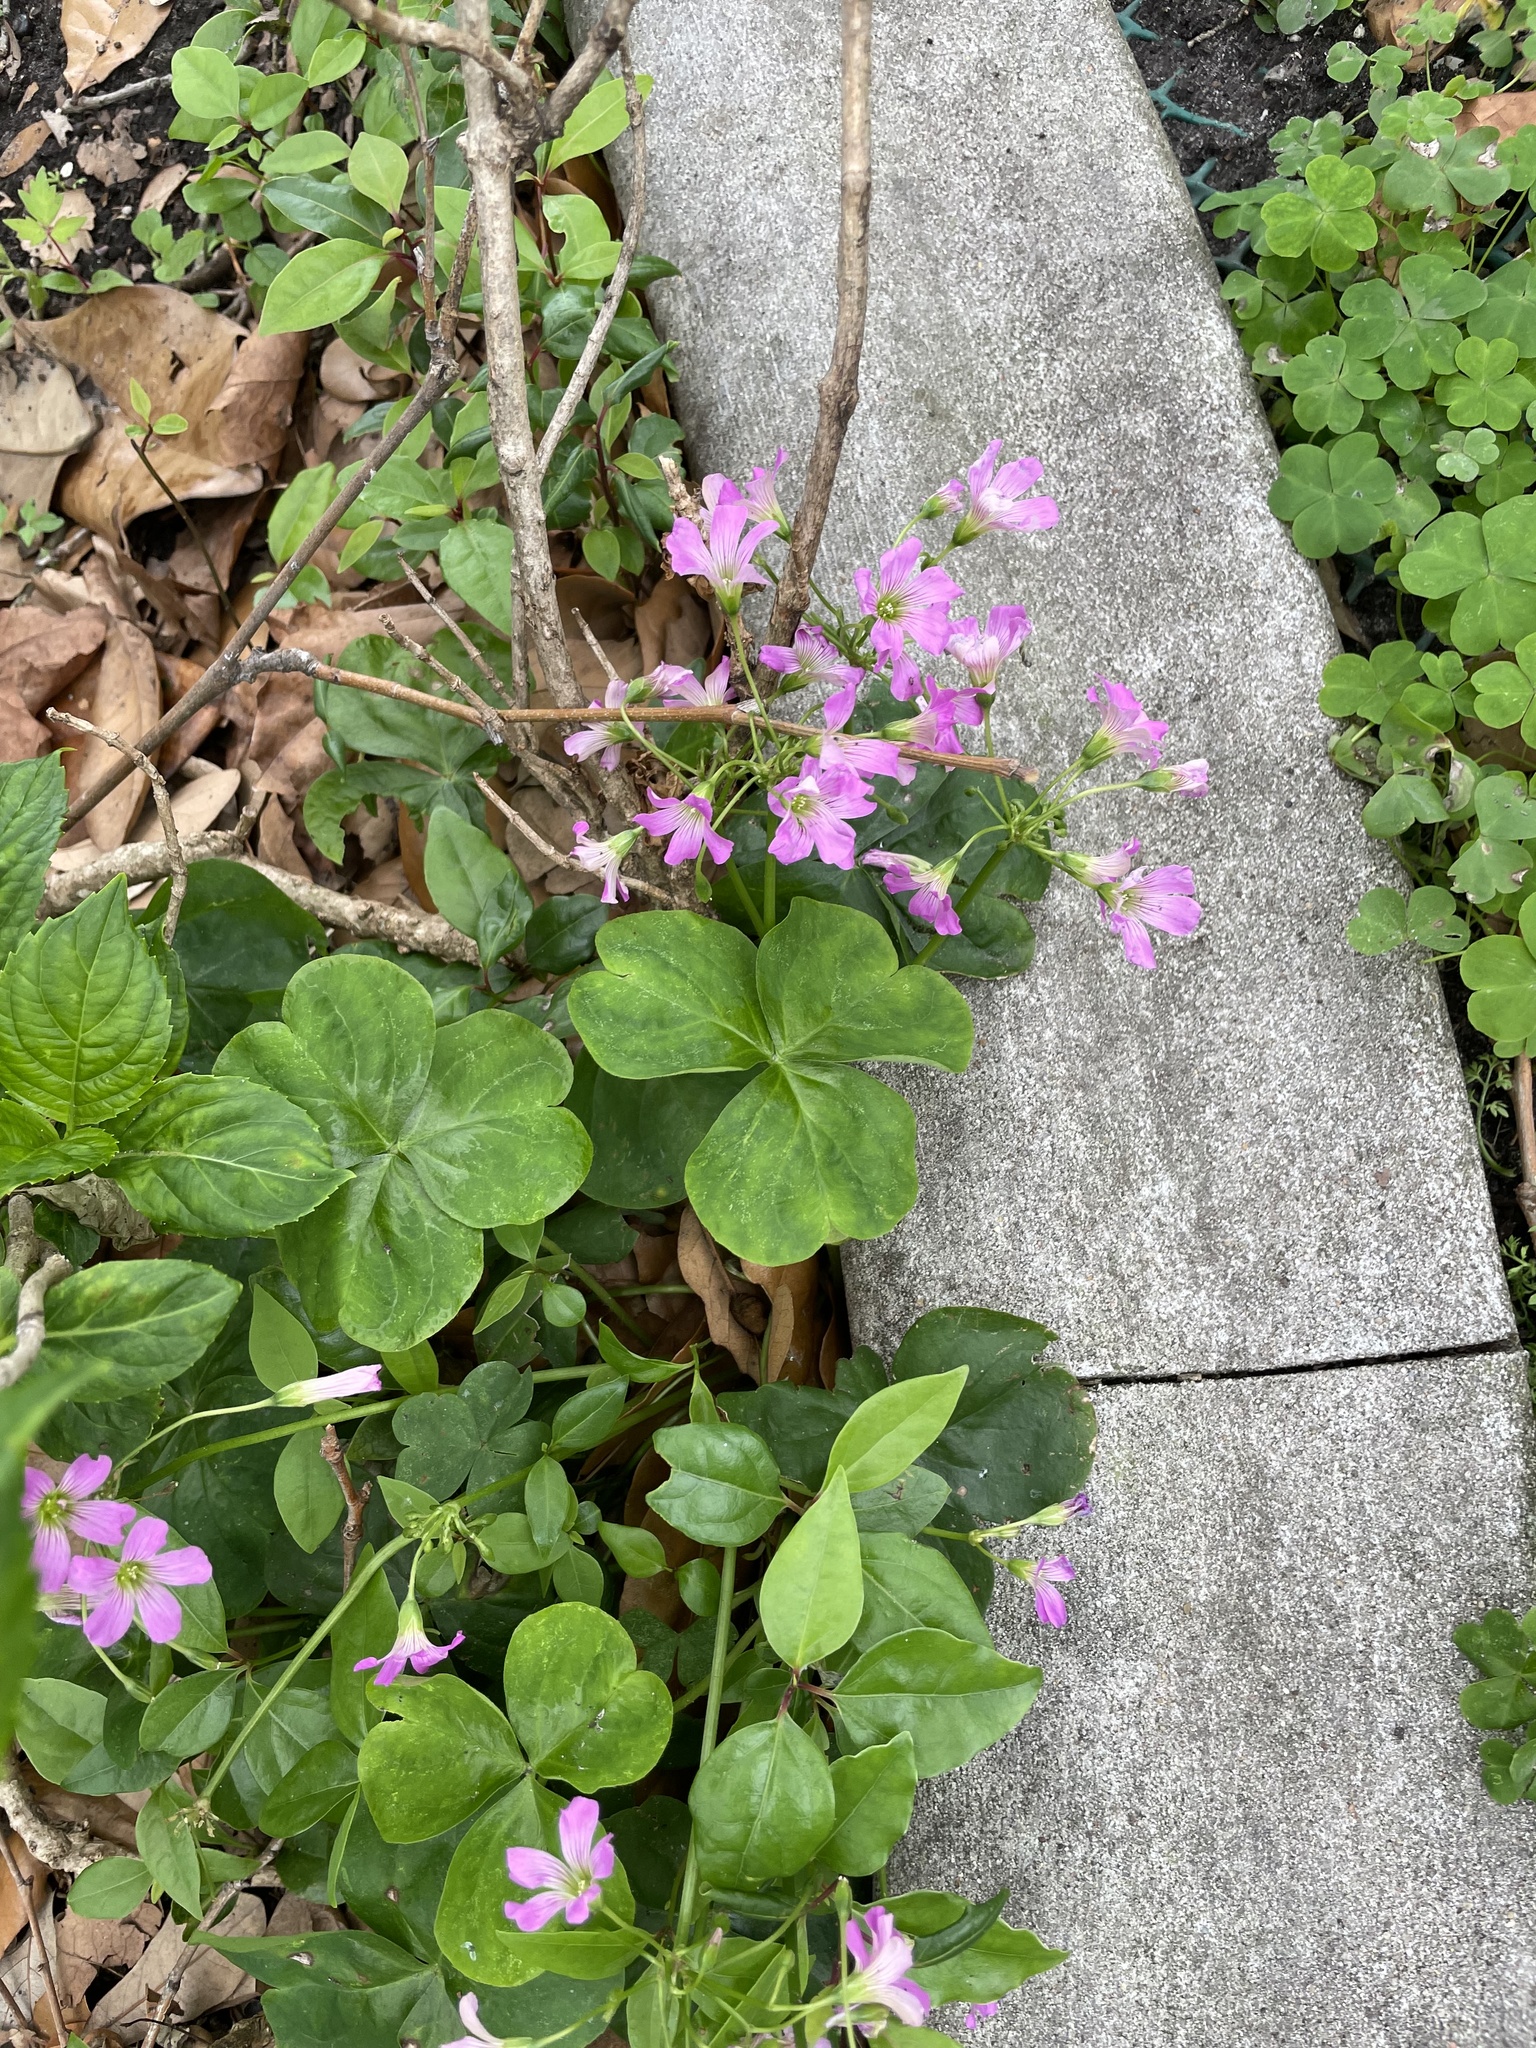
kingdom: Plantae
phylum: Tracheophyta
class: Magnoliopsida
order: Oxalidales
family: Oxalidaceae
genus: Oxalis
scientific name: Oxalis debilis
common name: Large-flowered pink-sorrel
